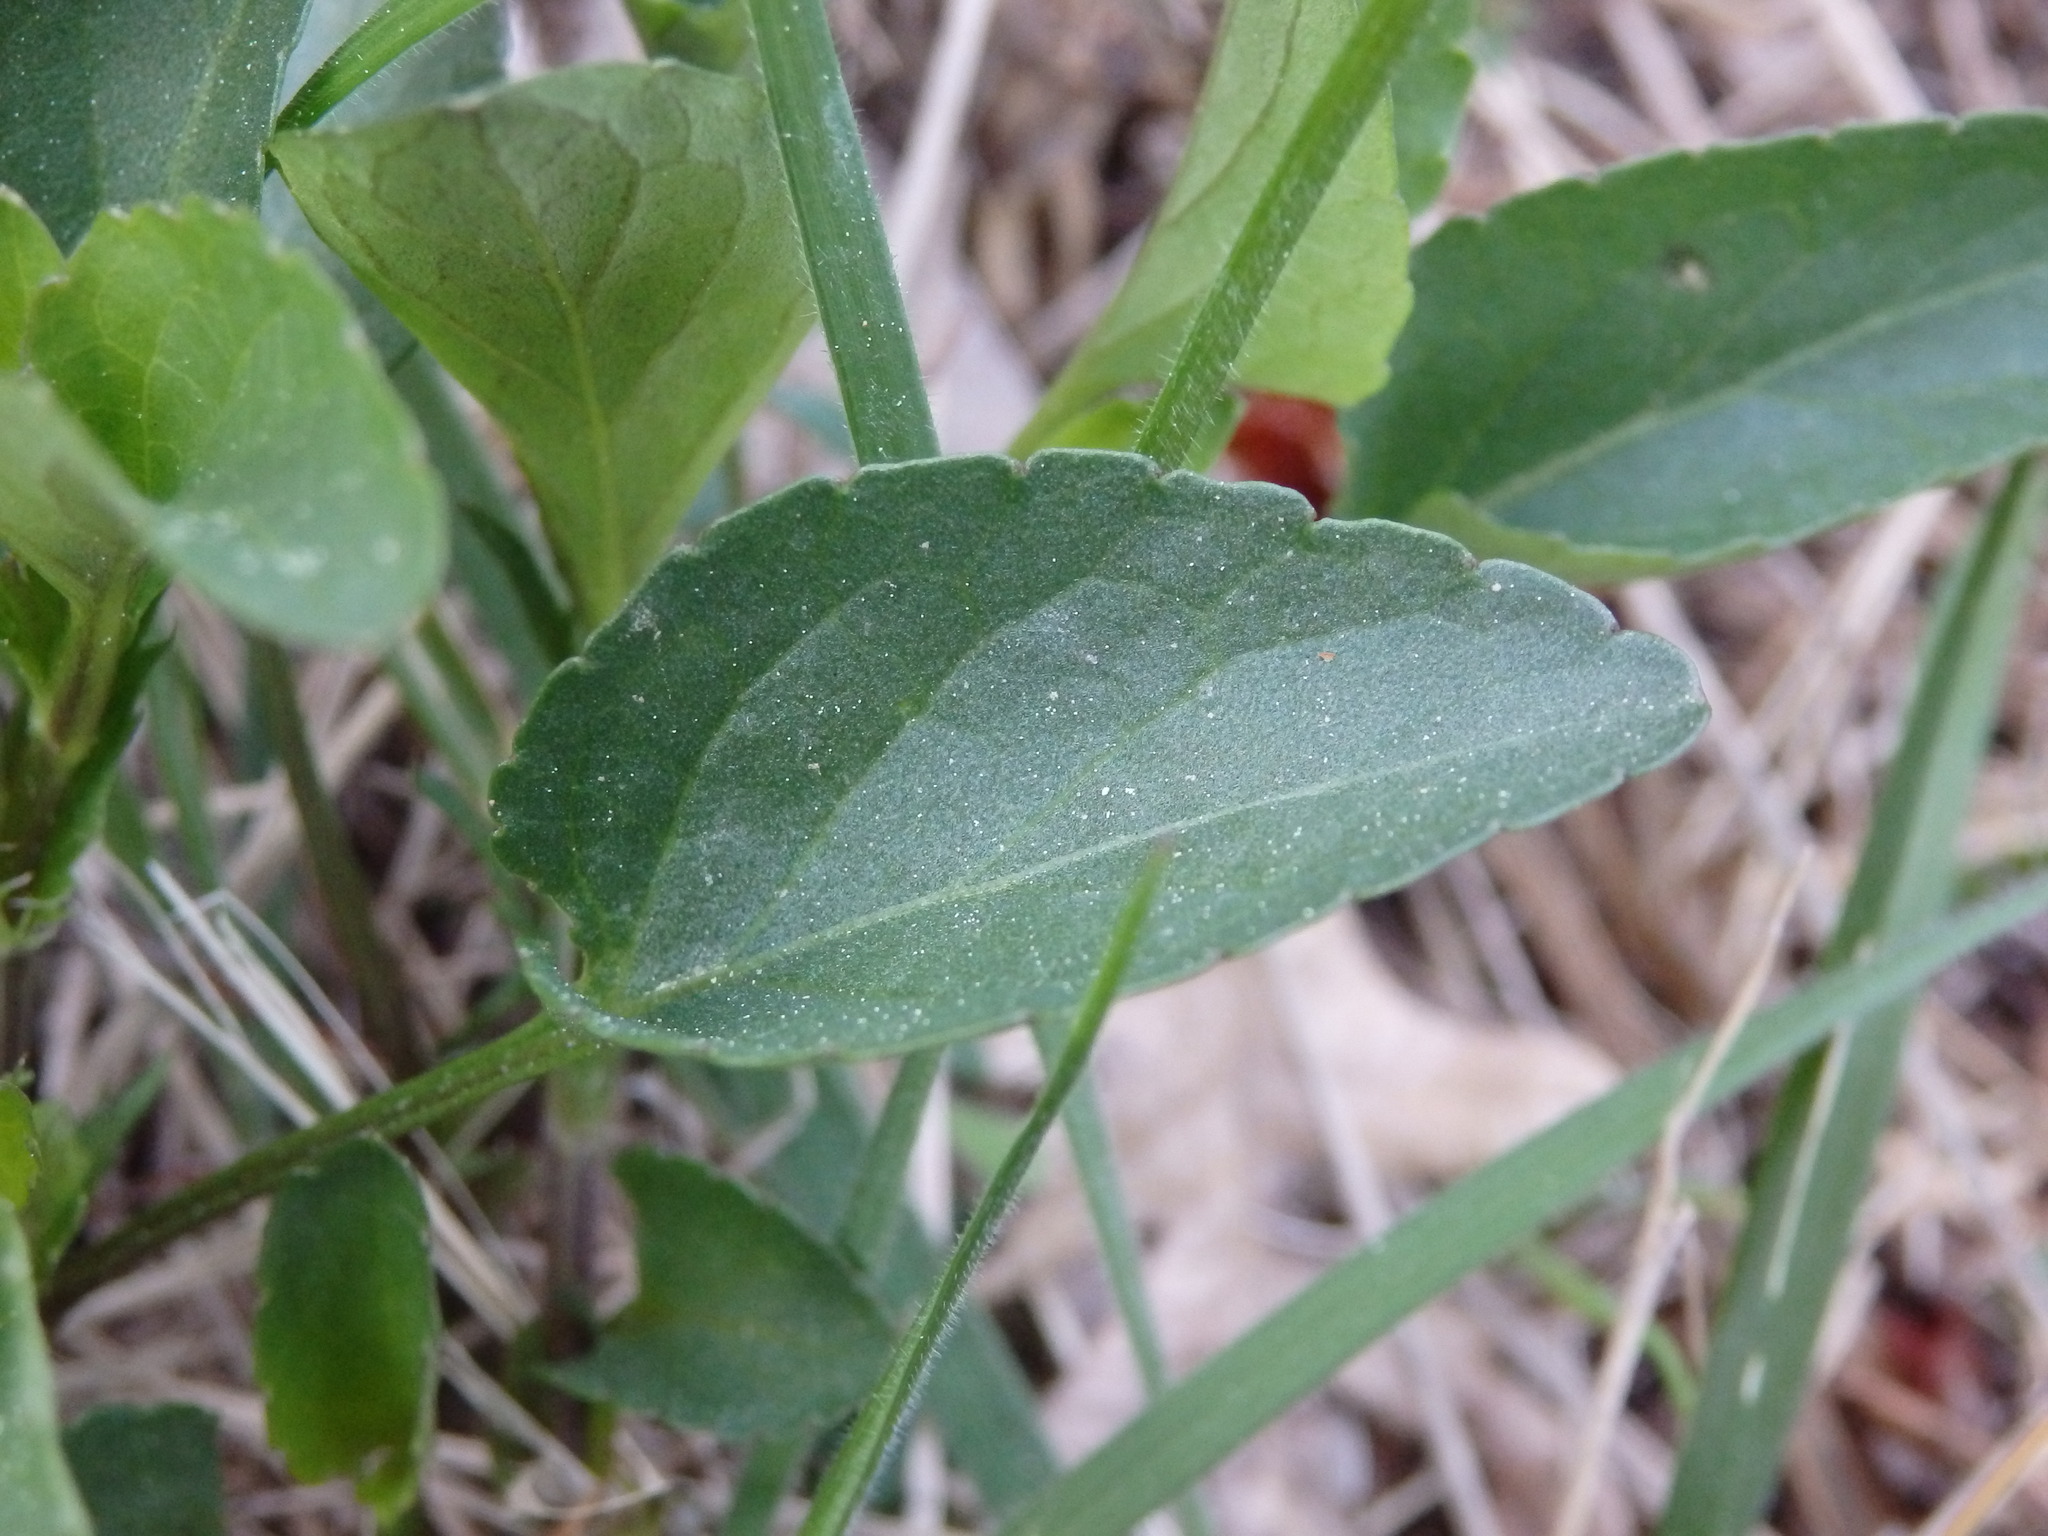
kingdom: Plantae
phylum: Tracheophyta
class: Magnoliopsida
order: Malpighiales
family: Violaceae
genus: Viola
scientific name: Viola lactea
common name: Pale dog-violet
